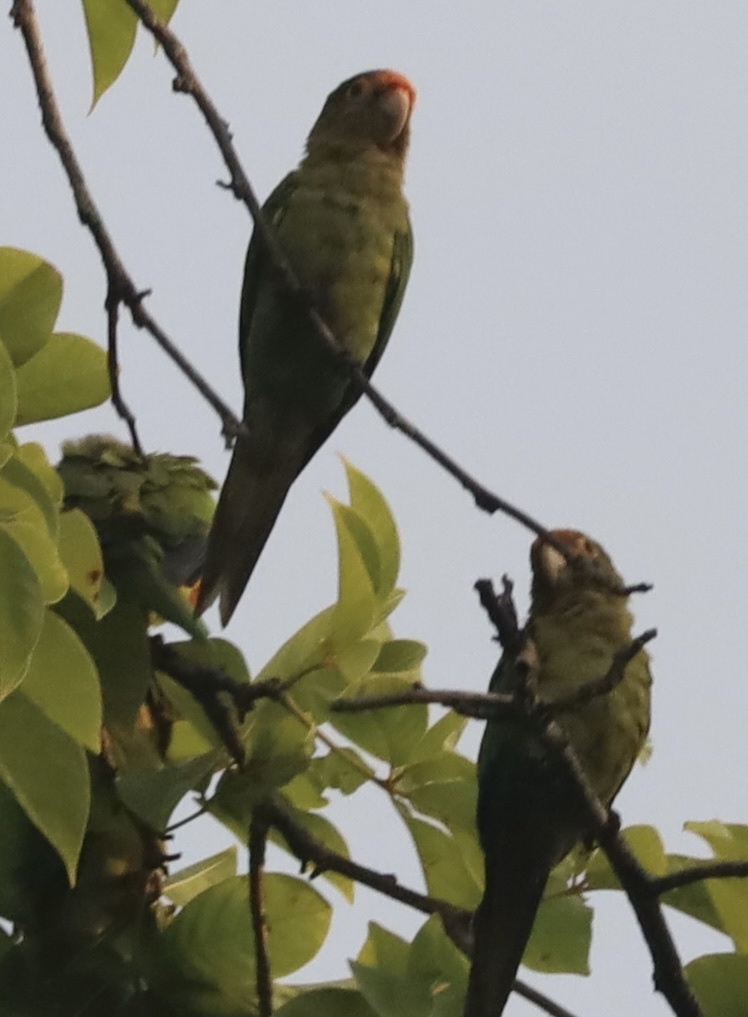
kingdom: Animalia
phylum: Chordata
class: Aves
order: Psittaciformes
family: Psittacidae
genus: Aratinga
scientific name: Aratinga canicularis
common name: Orange-fronted parakeet
